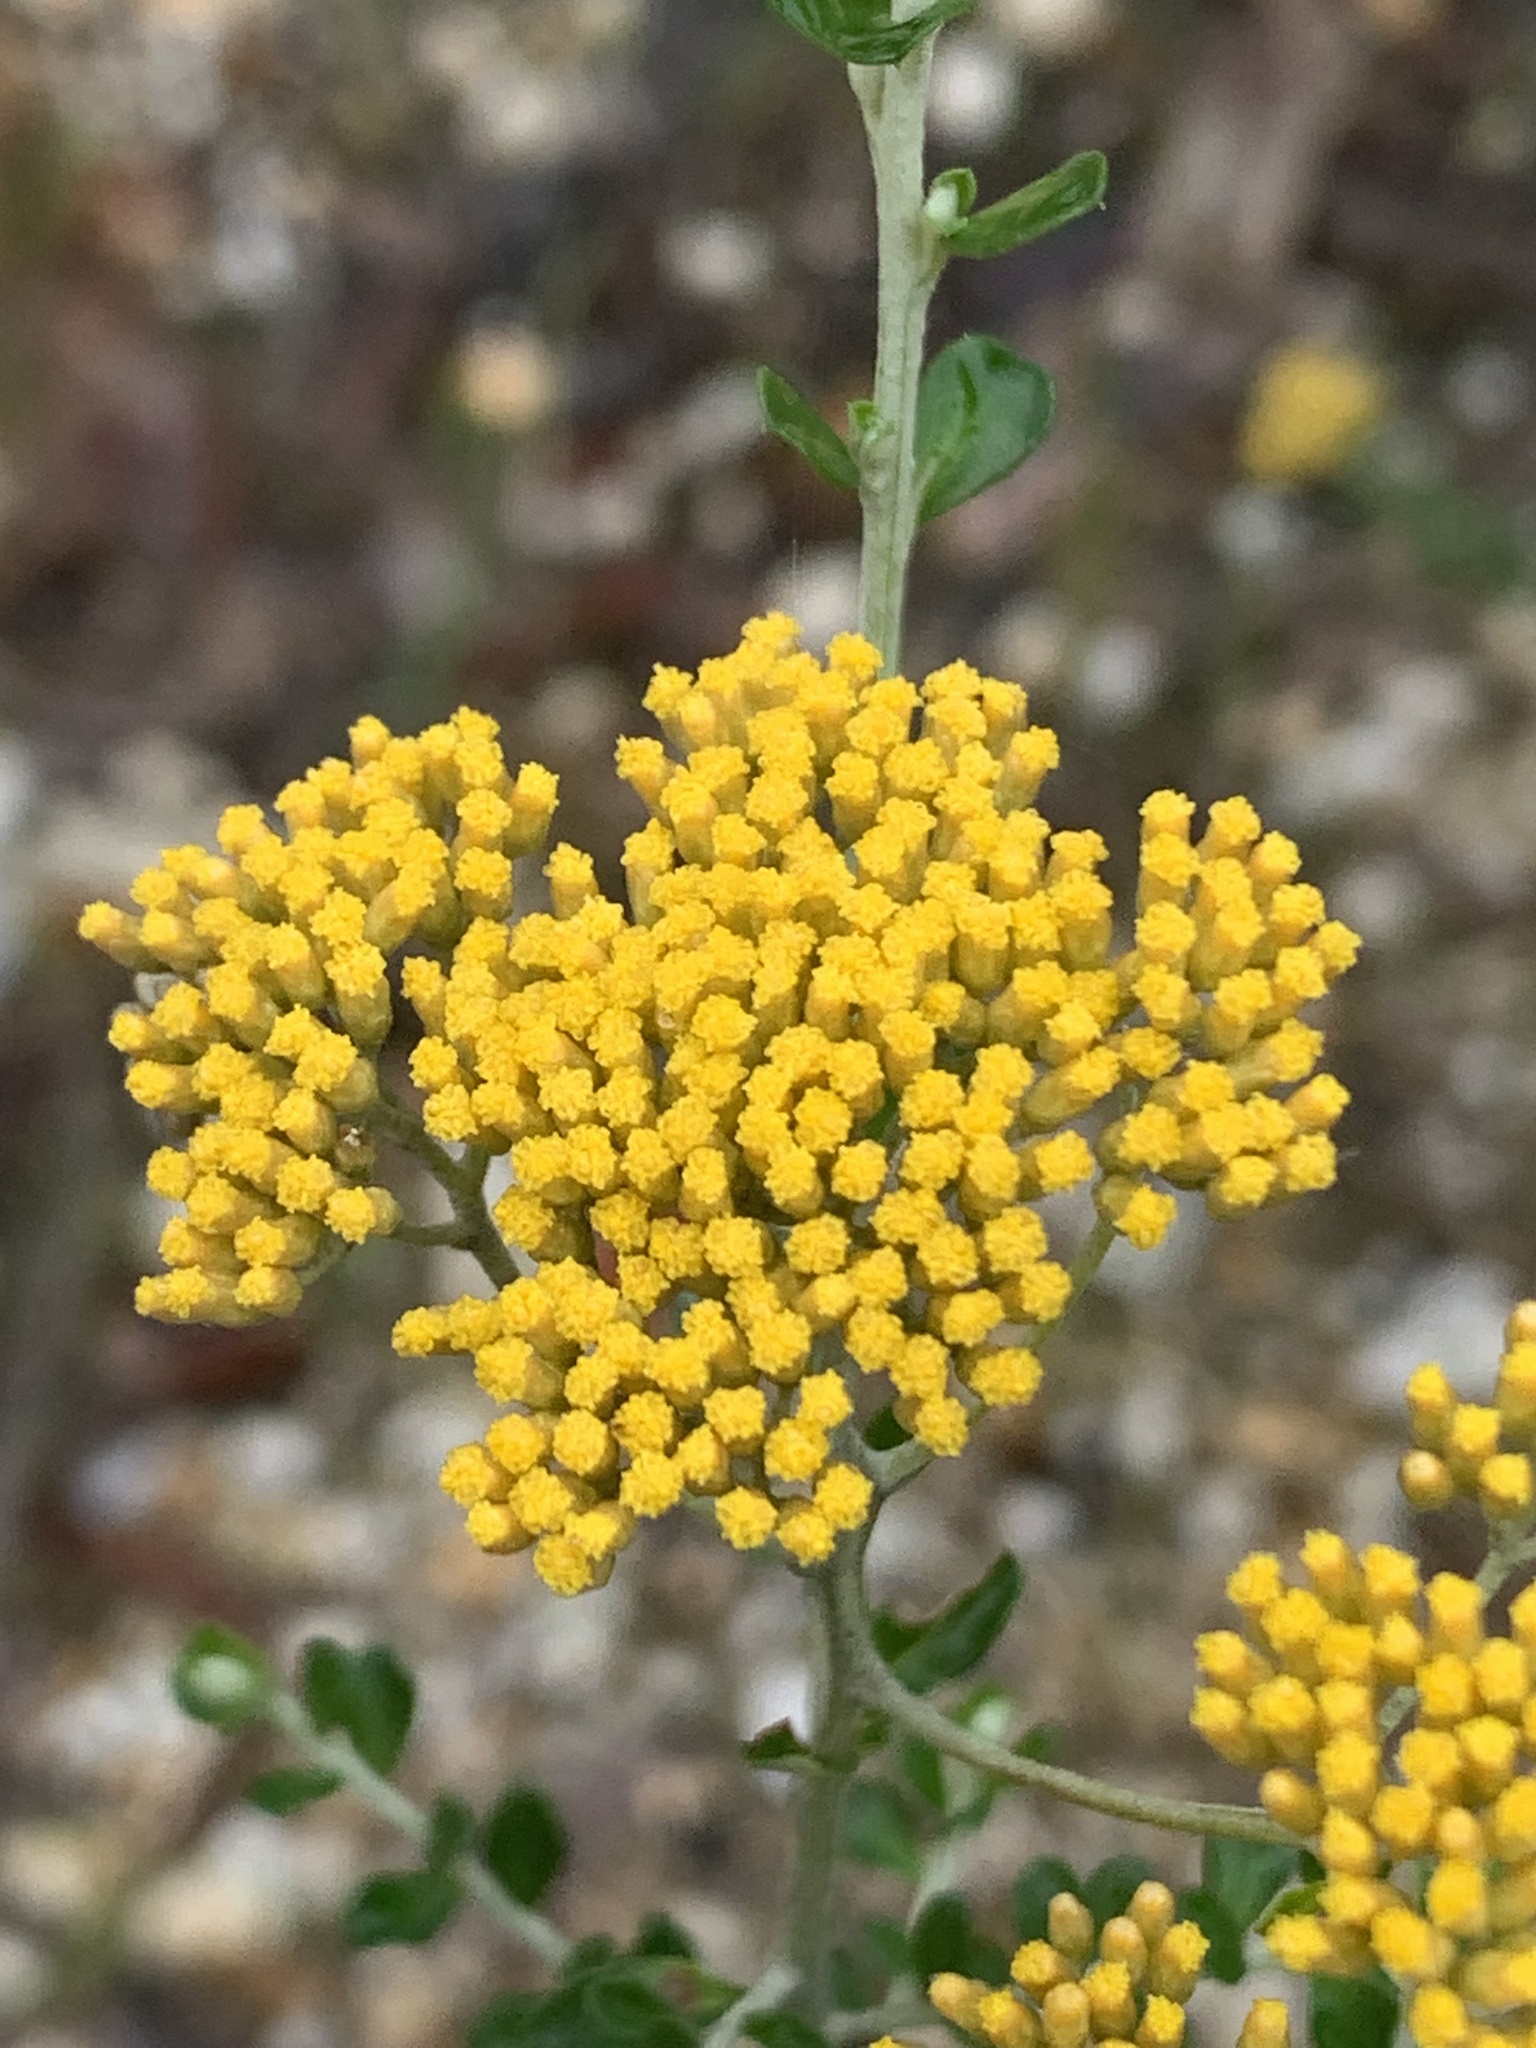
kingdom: Plantae
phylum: Tracheophyta
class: Magnoliopsida
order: Asterales
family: Asteraceae
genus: Ozothamnus
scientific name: Ozothamnus obcordatus
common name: Grey everlasting
